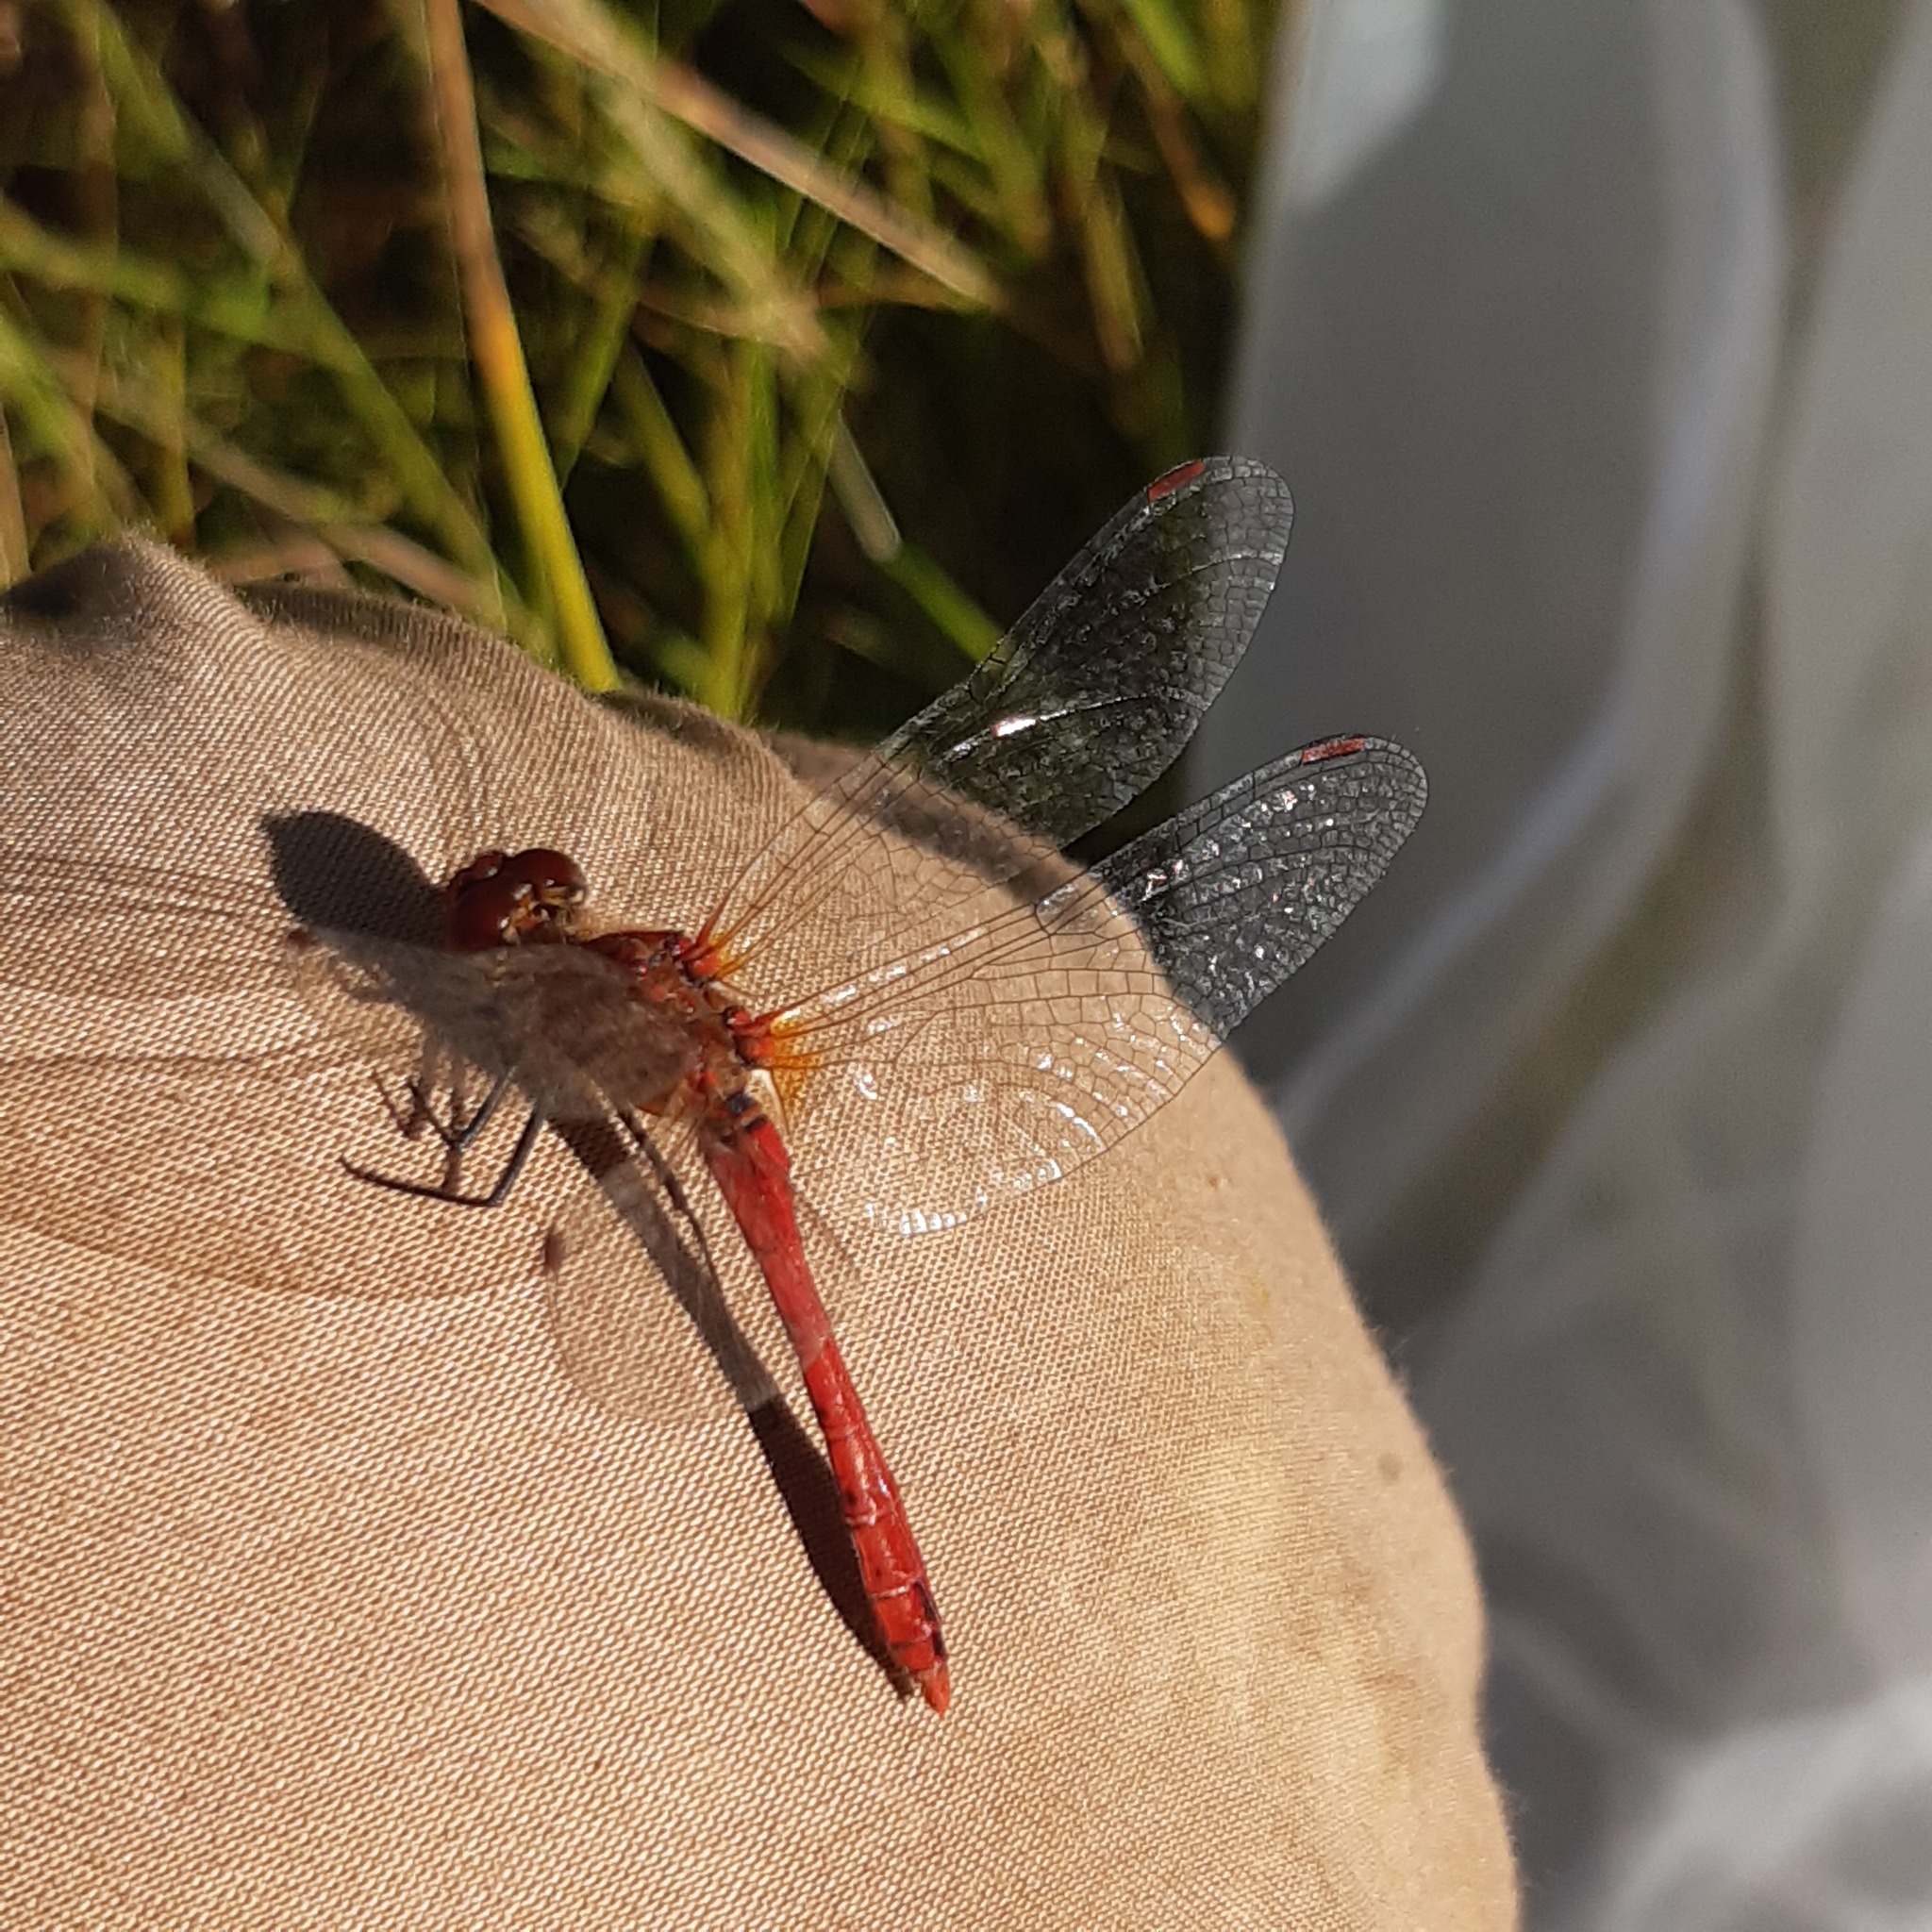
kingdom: Animalia
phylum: Arthropoda
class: Insecta
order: Odonata
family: Libellulidae
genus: Sympetrum
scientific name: Sympetrum sanguineum
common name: Ruddy darter
